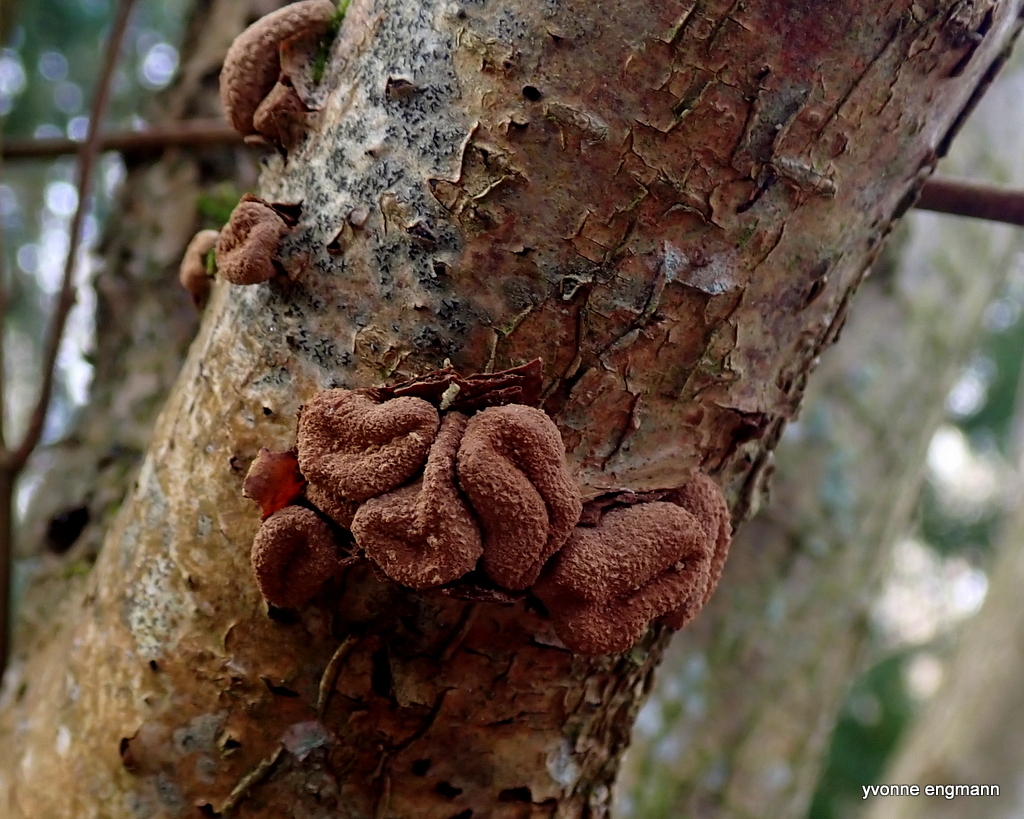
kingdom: Fungi
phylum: Ascomycota
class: Leotiomycetes
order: Helotiales
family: Cenangiaceae
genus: Encoelia
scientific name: Encoelia furfuracea
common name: Spring hazelcup
